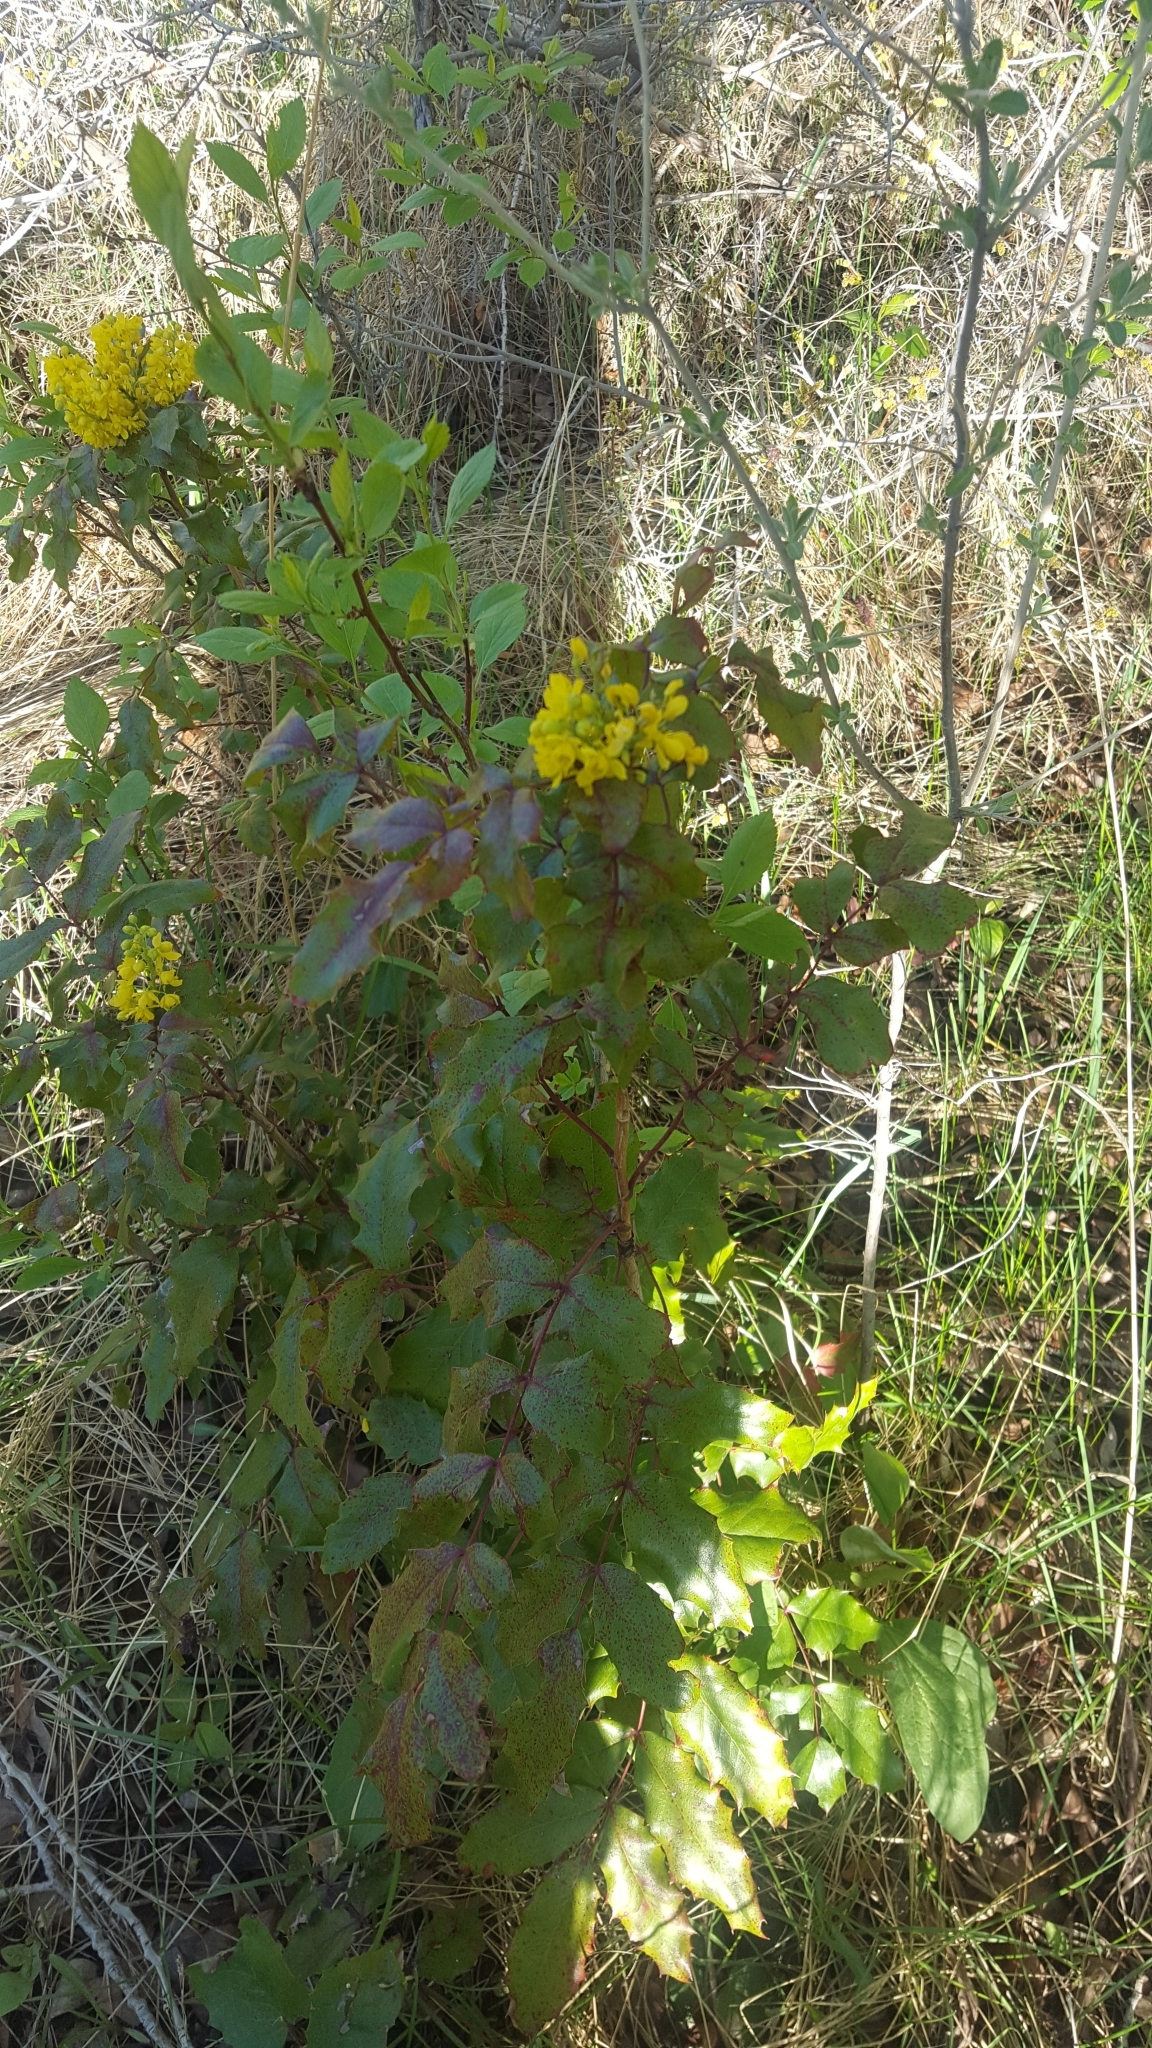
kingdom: Plantae
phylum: Tracheophyta
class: Magnoliopsida
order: Ranunculales
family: Berberidaceae
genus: Mahonia
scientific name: Mahonia aquifolium
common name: Oregon-grape
